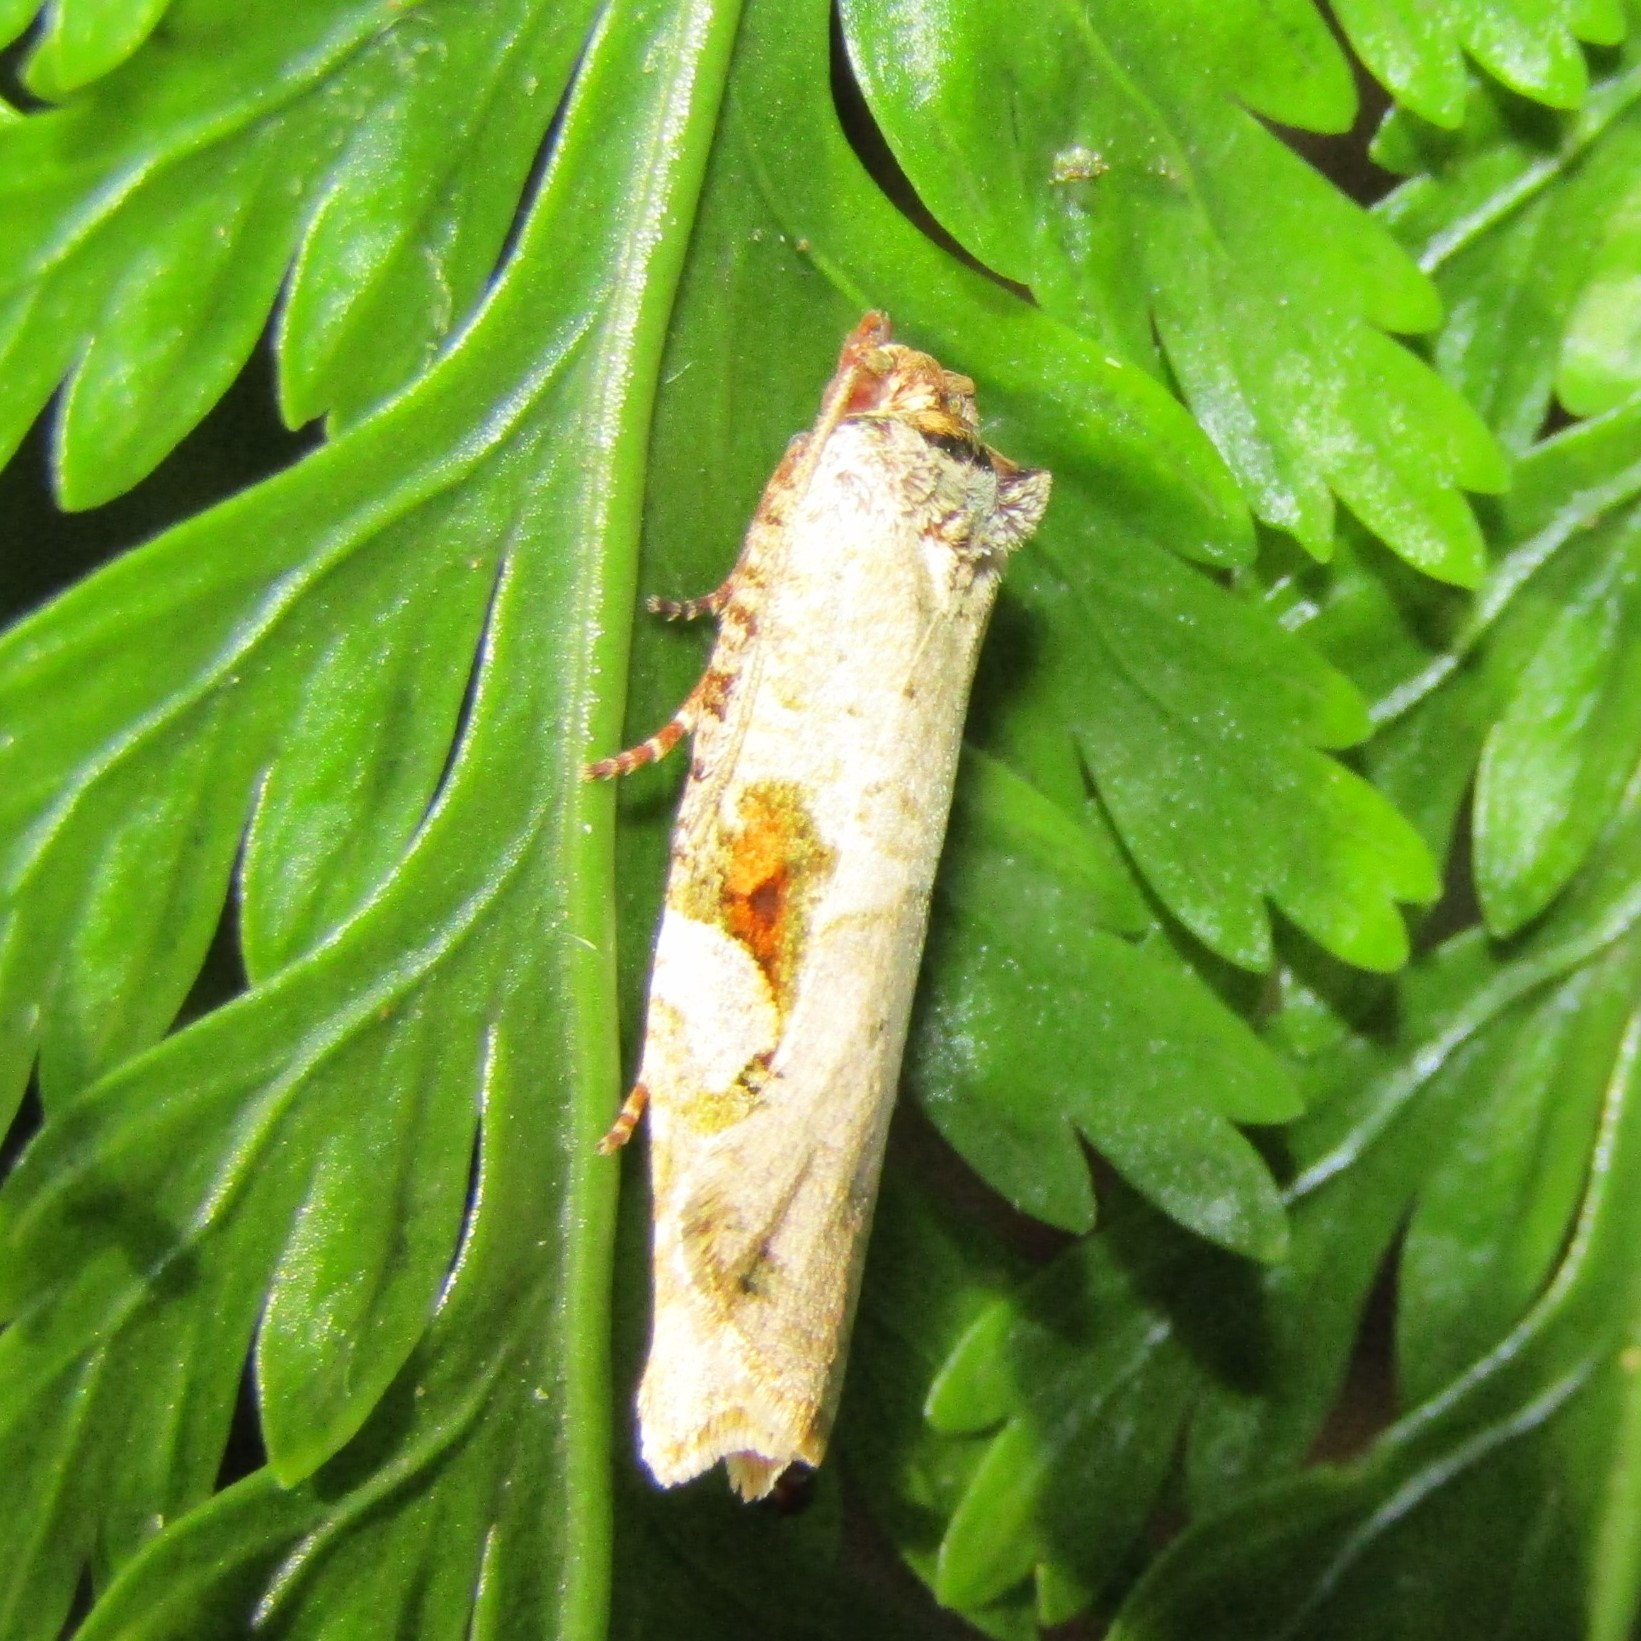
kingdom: Animalia
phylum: Arthropoda
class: Insecta
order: Lepidoptera
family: Tortricidae
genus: Epalxiphora
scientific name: Epalxiphora axenana
